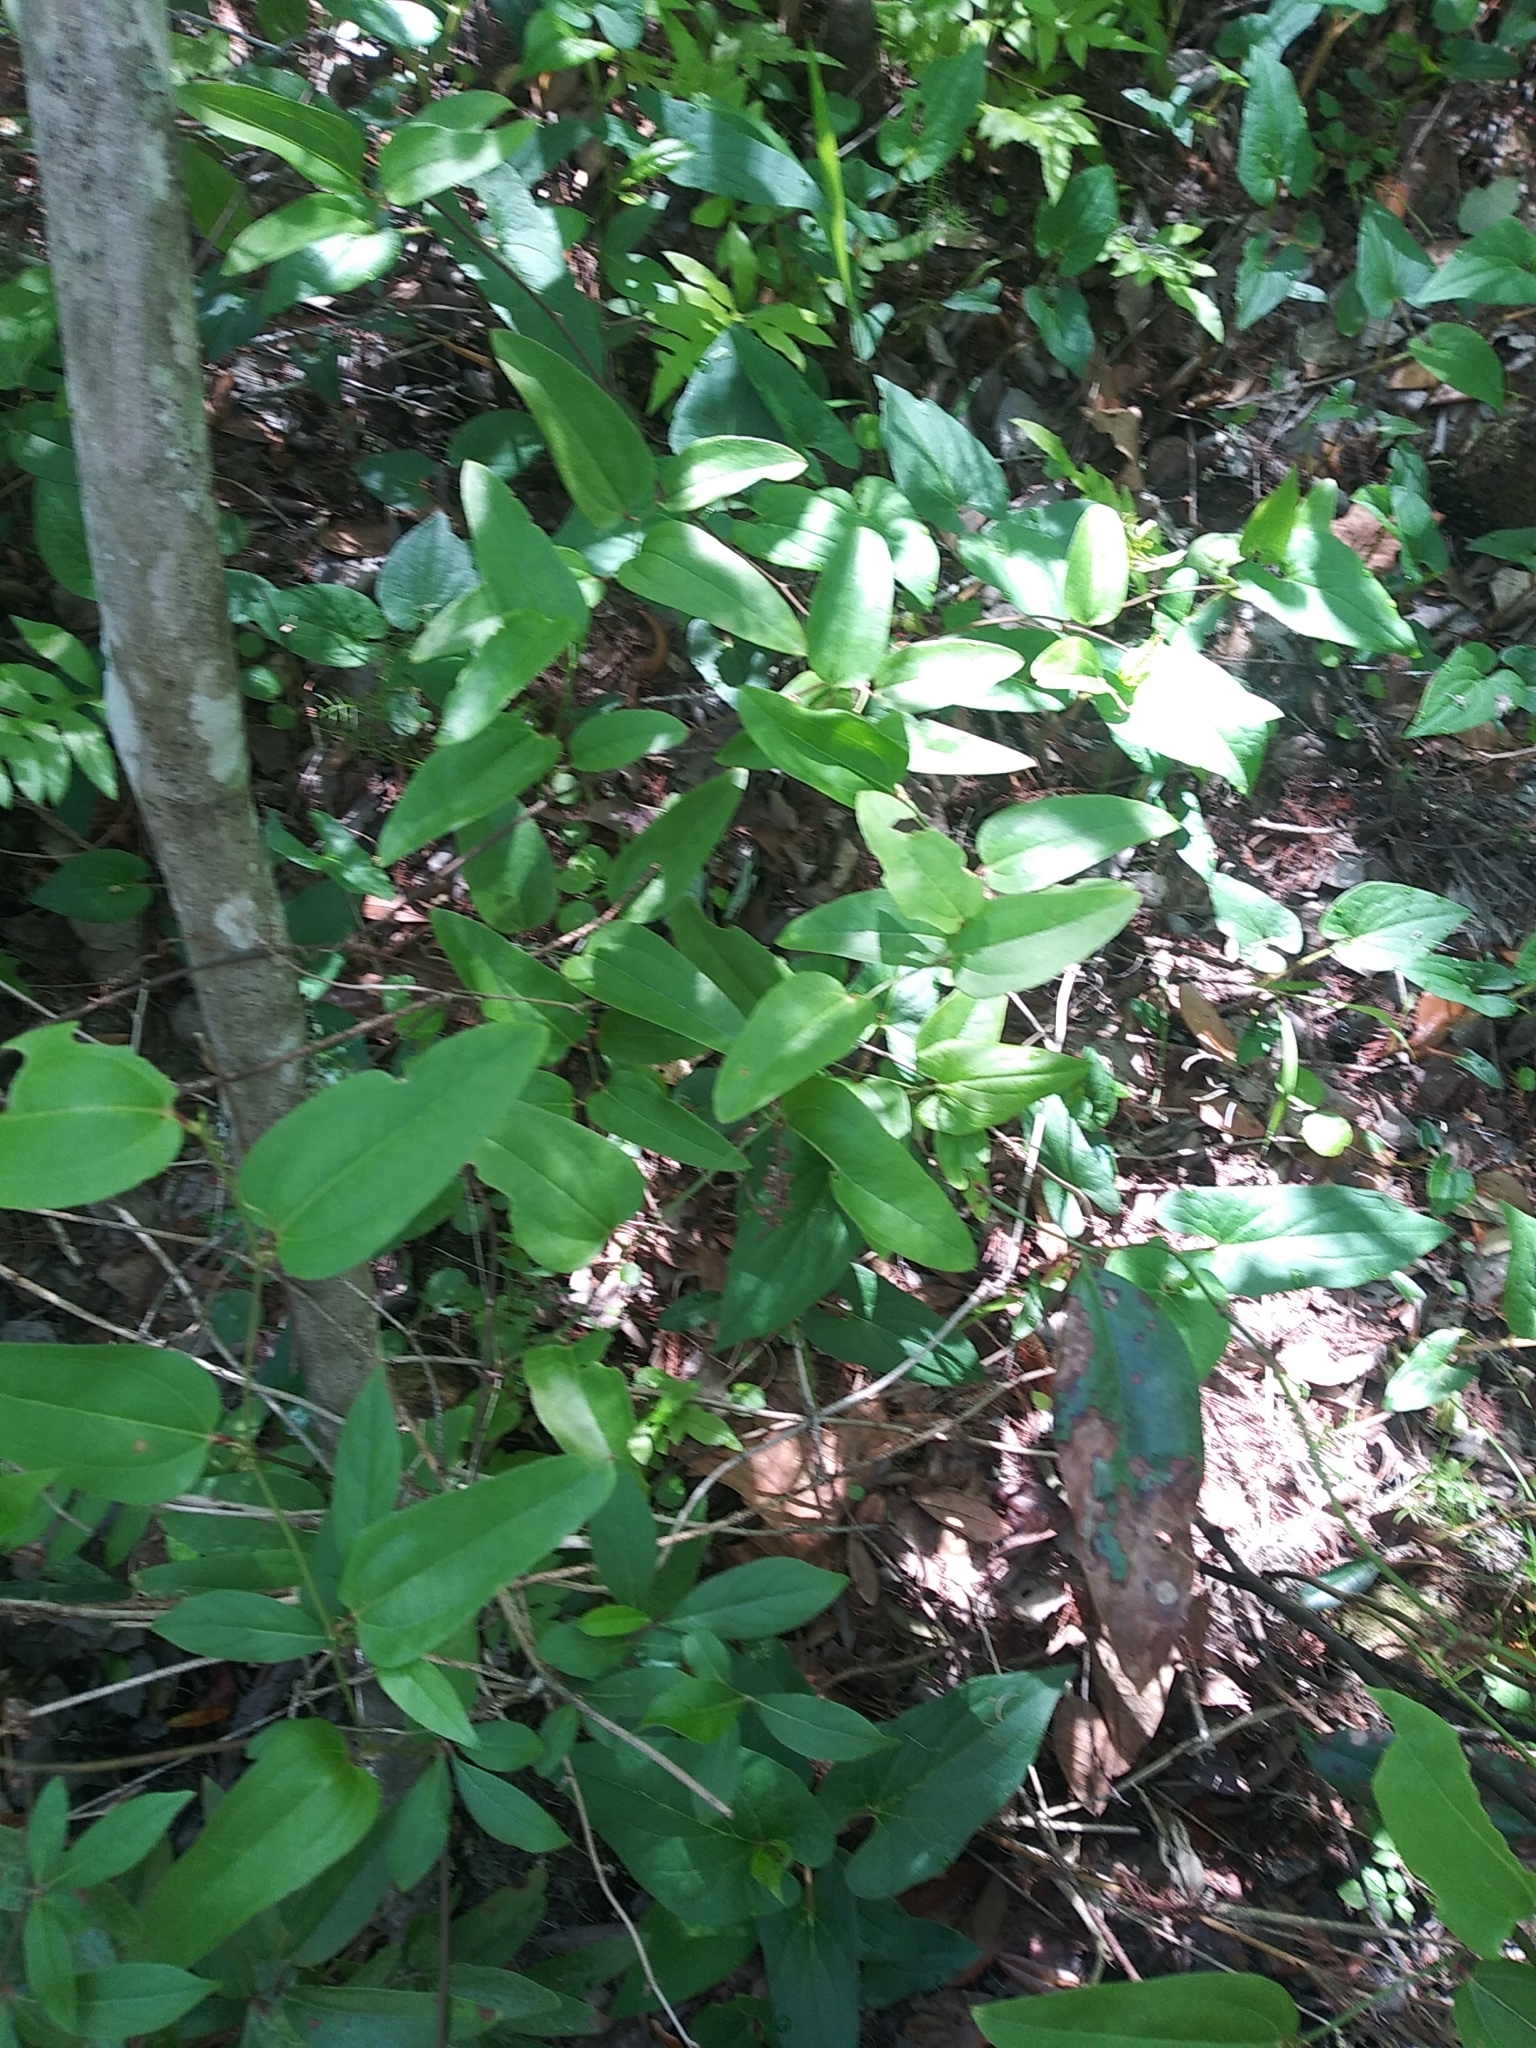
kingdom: Plantae
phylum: Tracheophyta
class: Liliopsida
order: Liliales
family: Smilacaceae
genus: Smilax
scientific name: Smilax walteri
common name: Coral greenbrier
